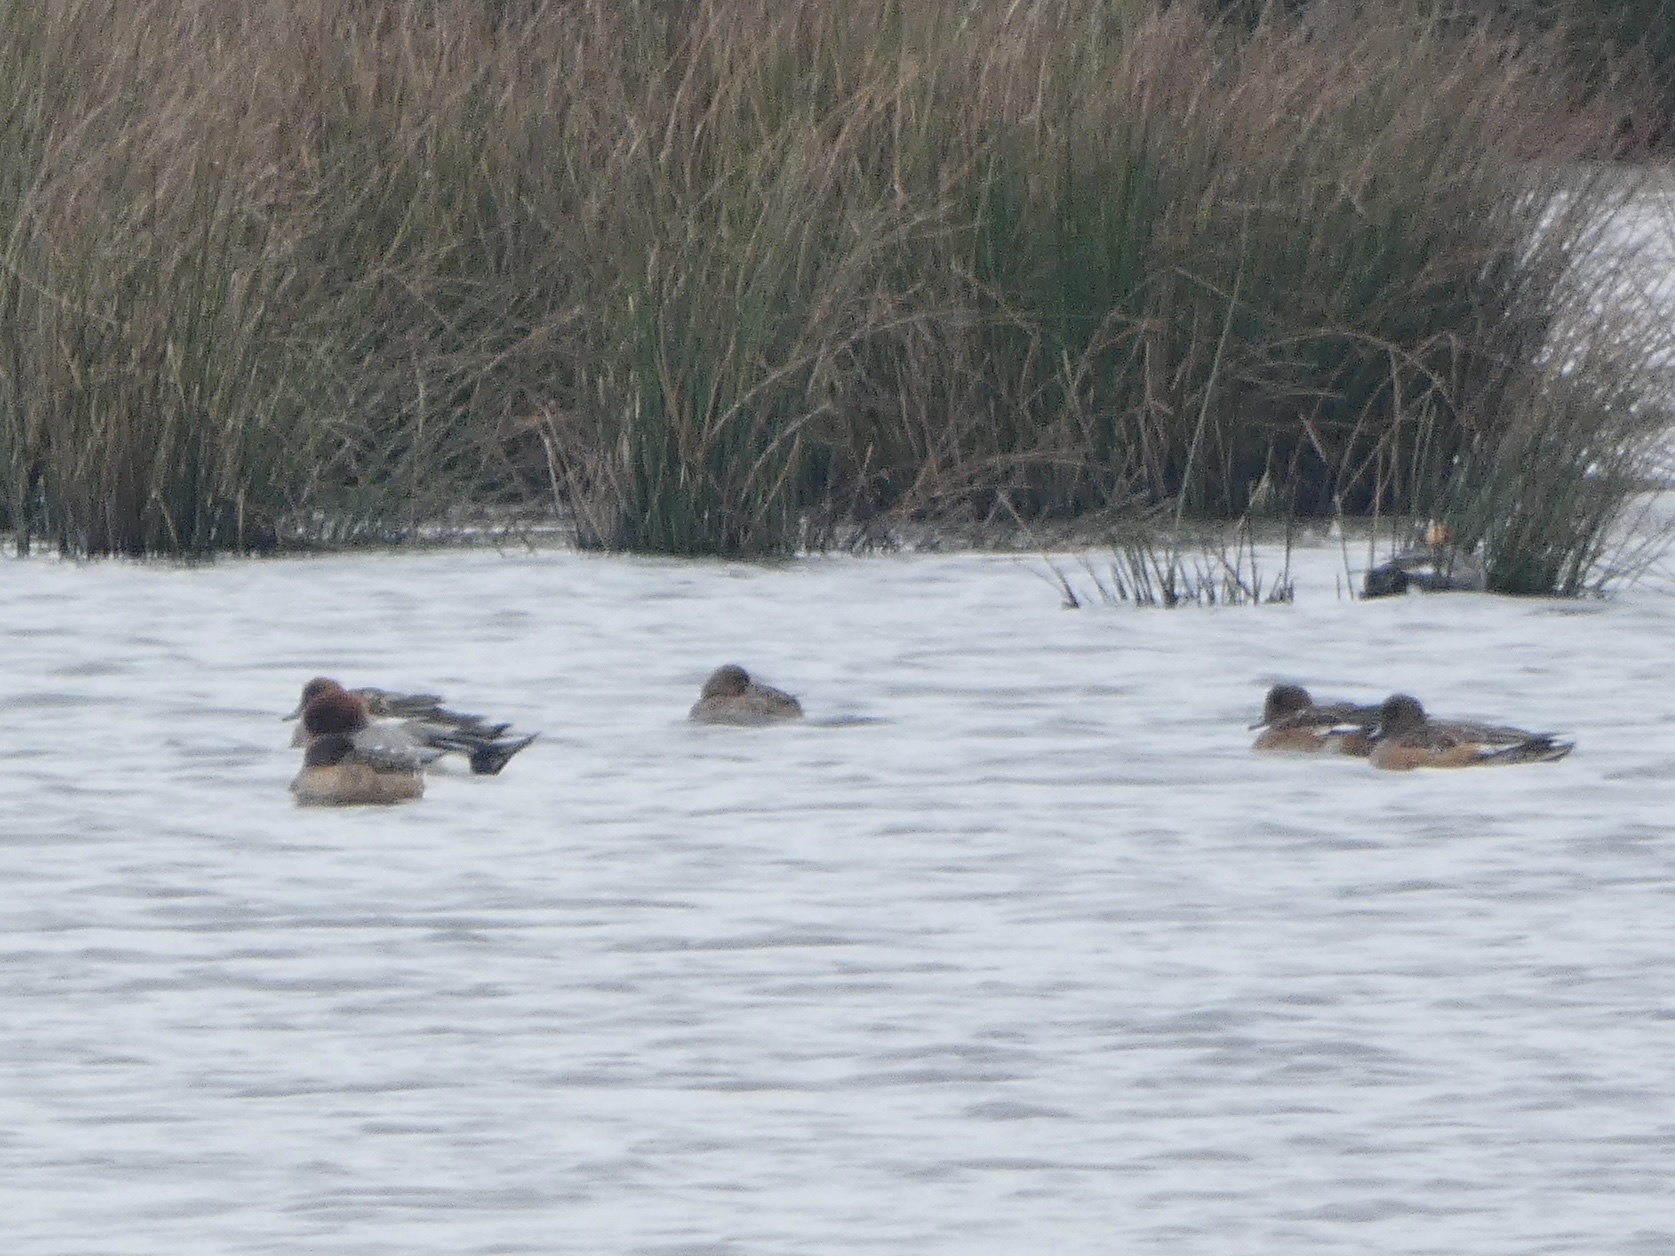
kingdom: Animalia
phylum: Chordata
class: Aves
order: Anseriformes
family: Anatidae
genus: Mareca
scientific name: Mareca penelope
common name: Eurasian wigeon
